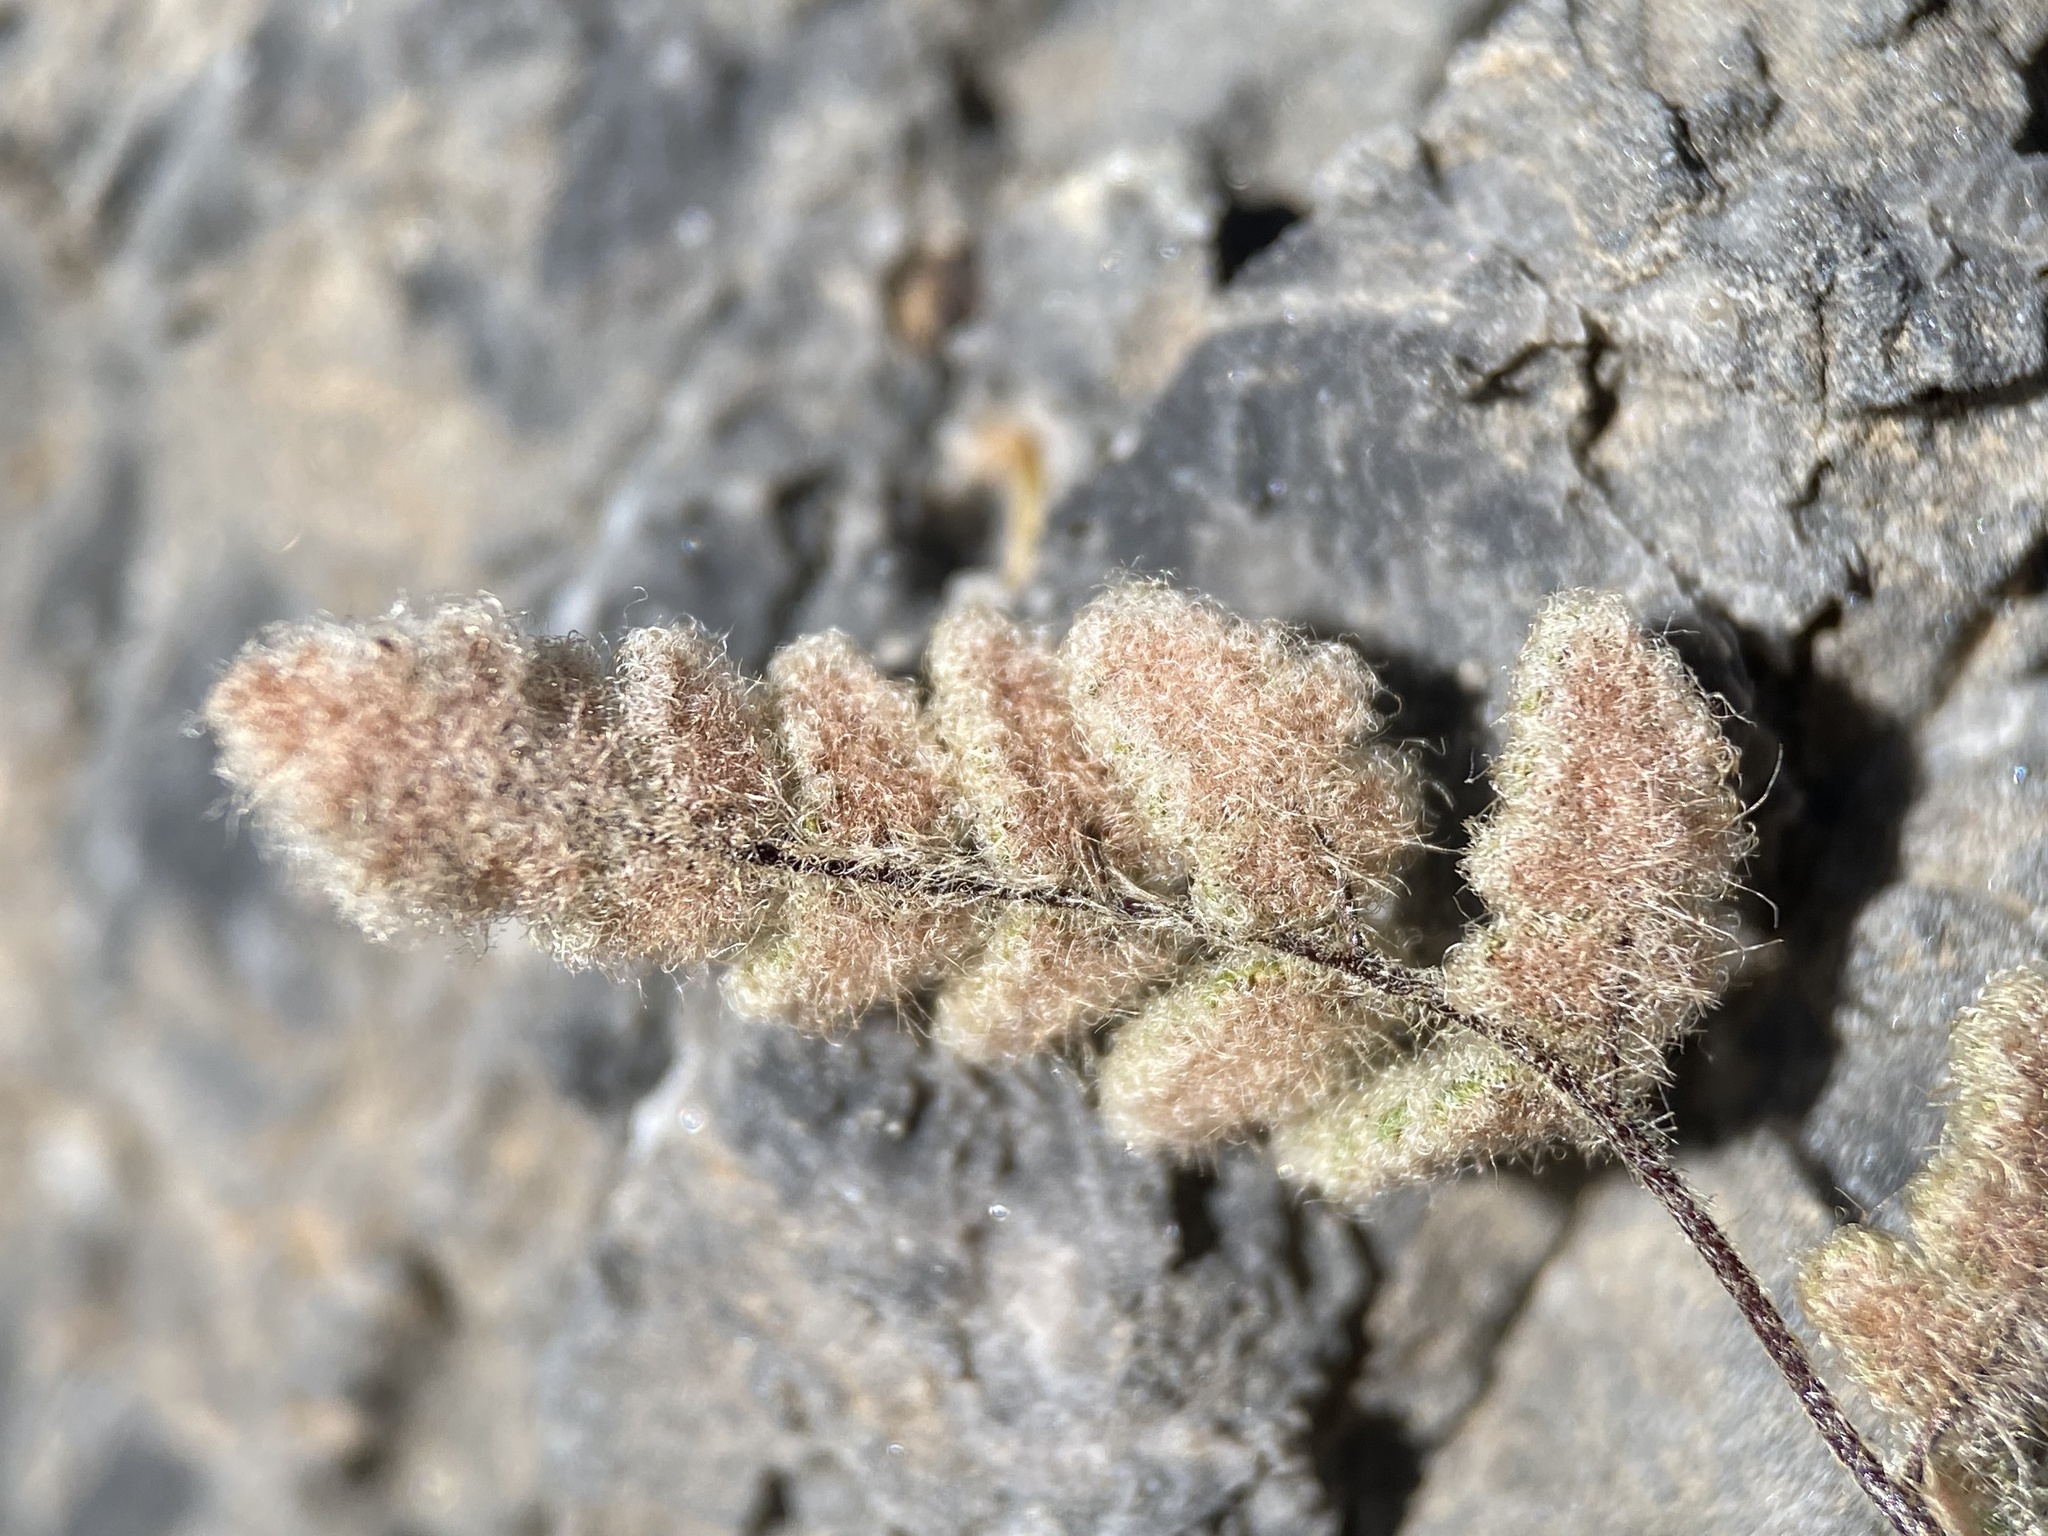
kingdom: Plantae
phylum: Tracheophyta
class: Polypodiopsida
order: Polypodiales
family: Pteridaceae
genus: Myriopteris
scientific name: Myriopteris parryi
